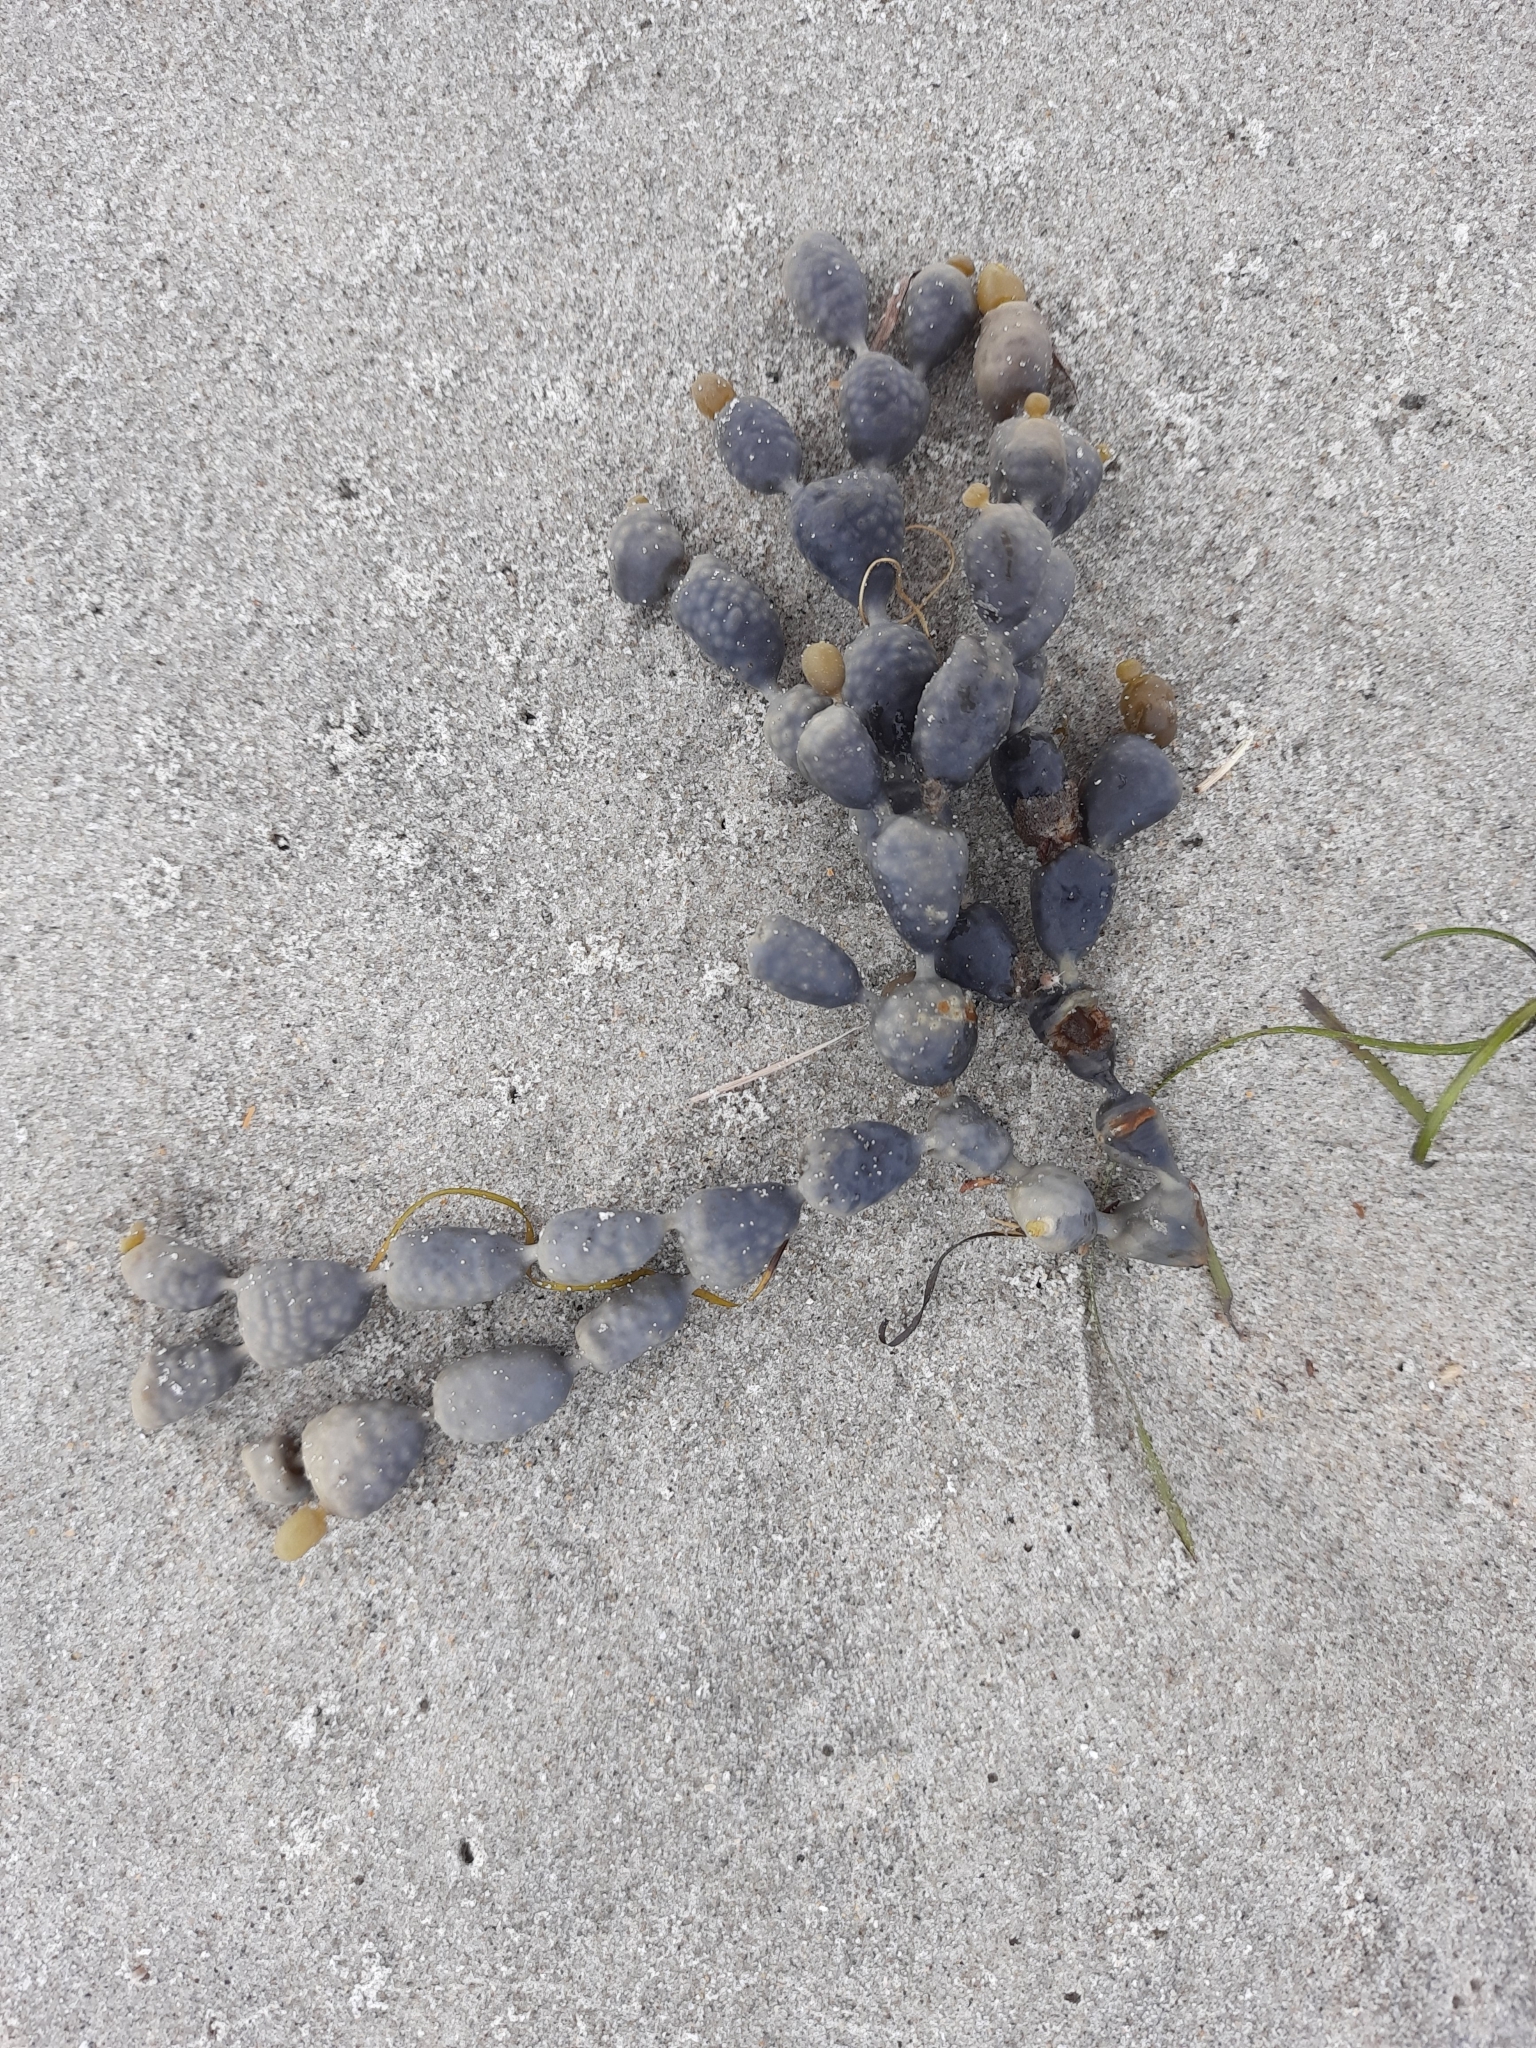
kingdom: Chromista
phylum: Ochrophyta
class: Phaeophyceae
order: Fucales
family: Hormosiraceae
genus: Hormosira
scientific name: Hormosira banksii
